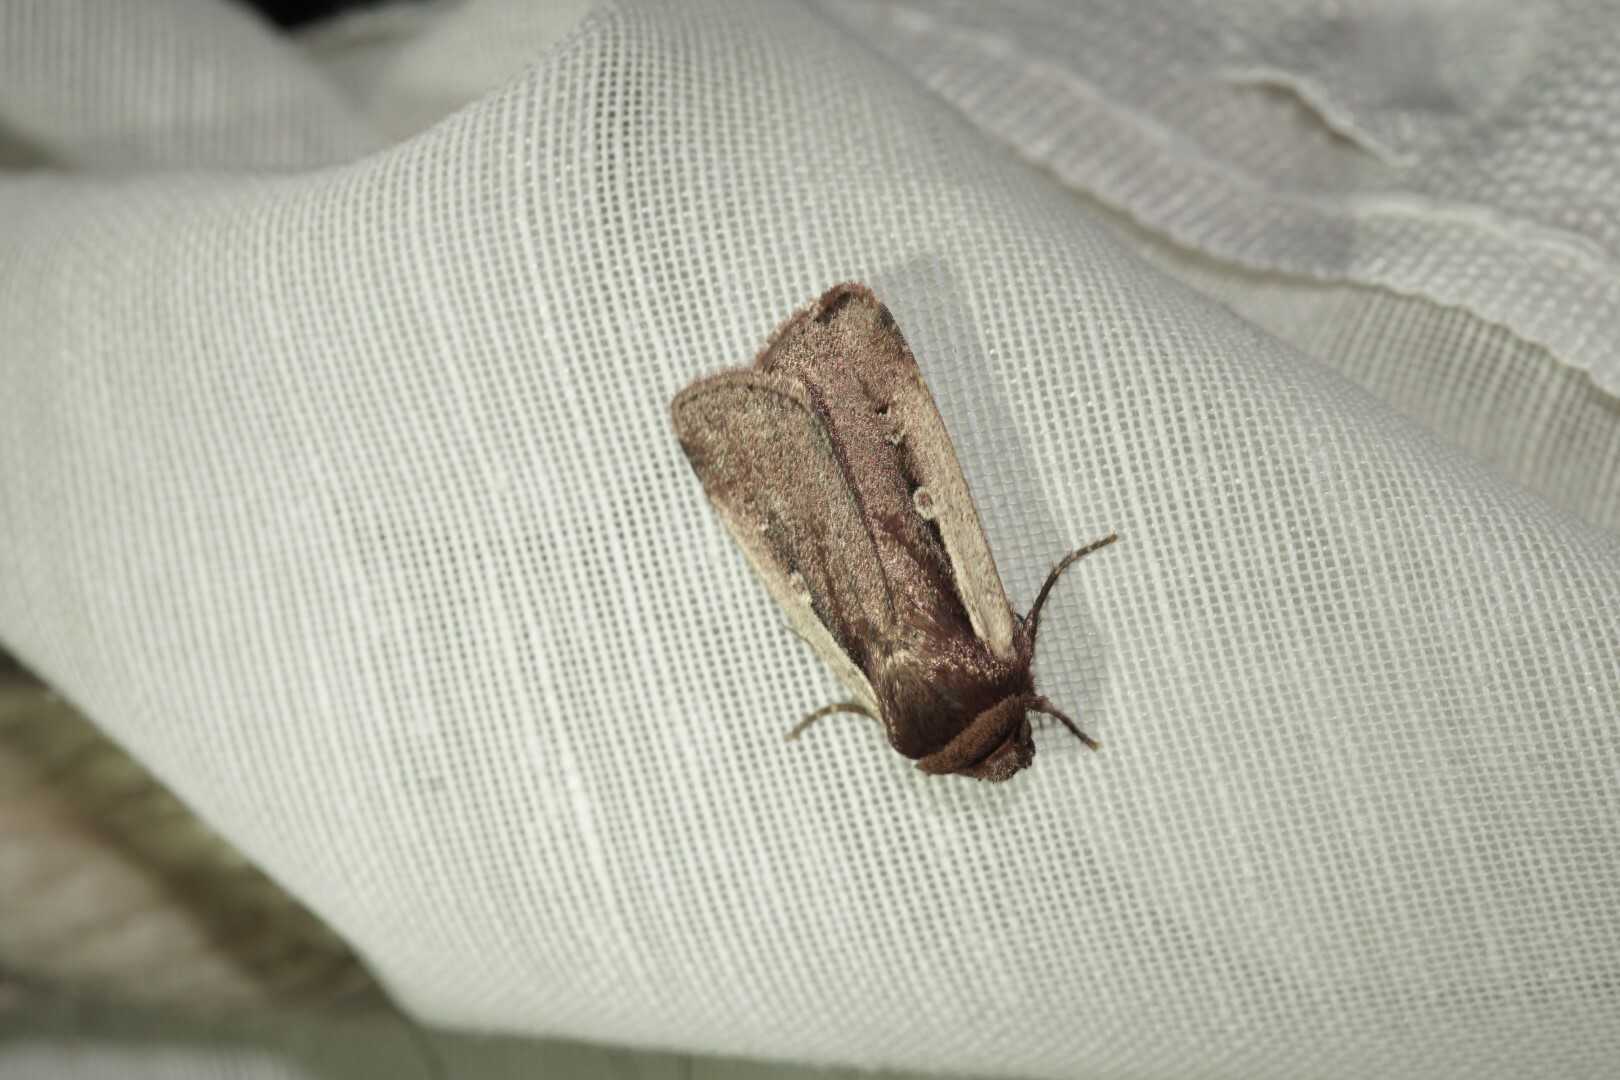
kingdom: Animalia
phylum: Arthropoda
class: Insecta
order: Lepidoptera
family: Noctuidae
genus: Ochropleura
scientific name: Ochropleura plecta
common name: Flame shoulder
